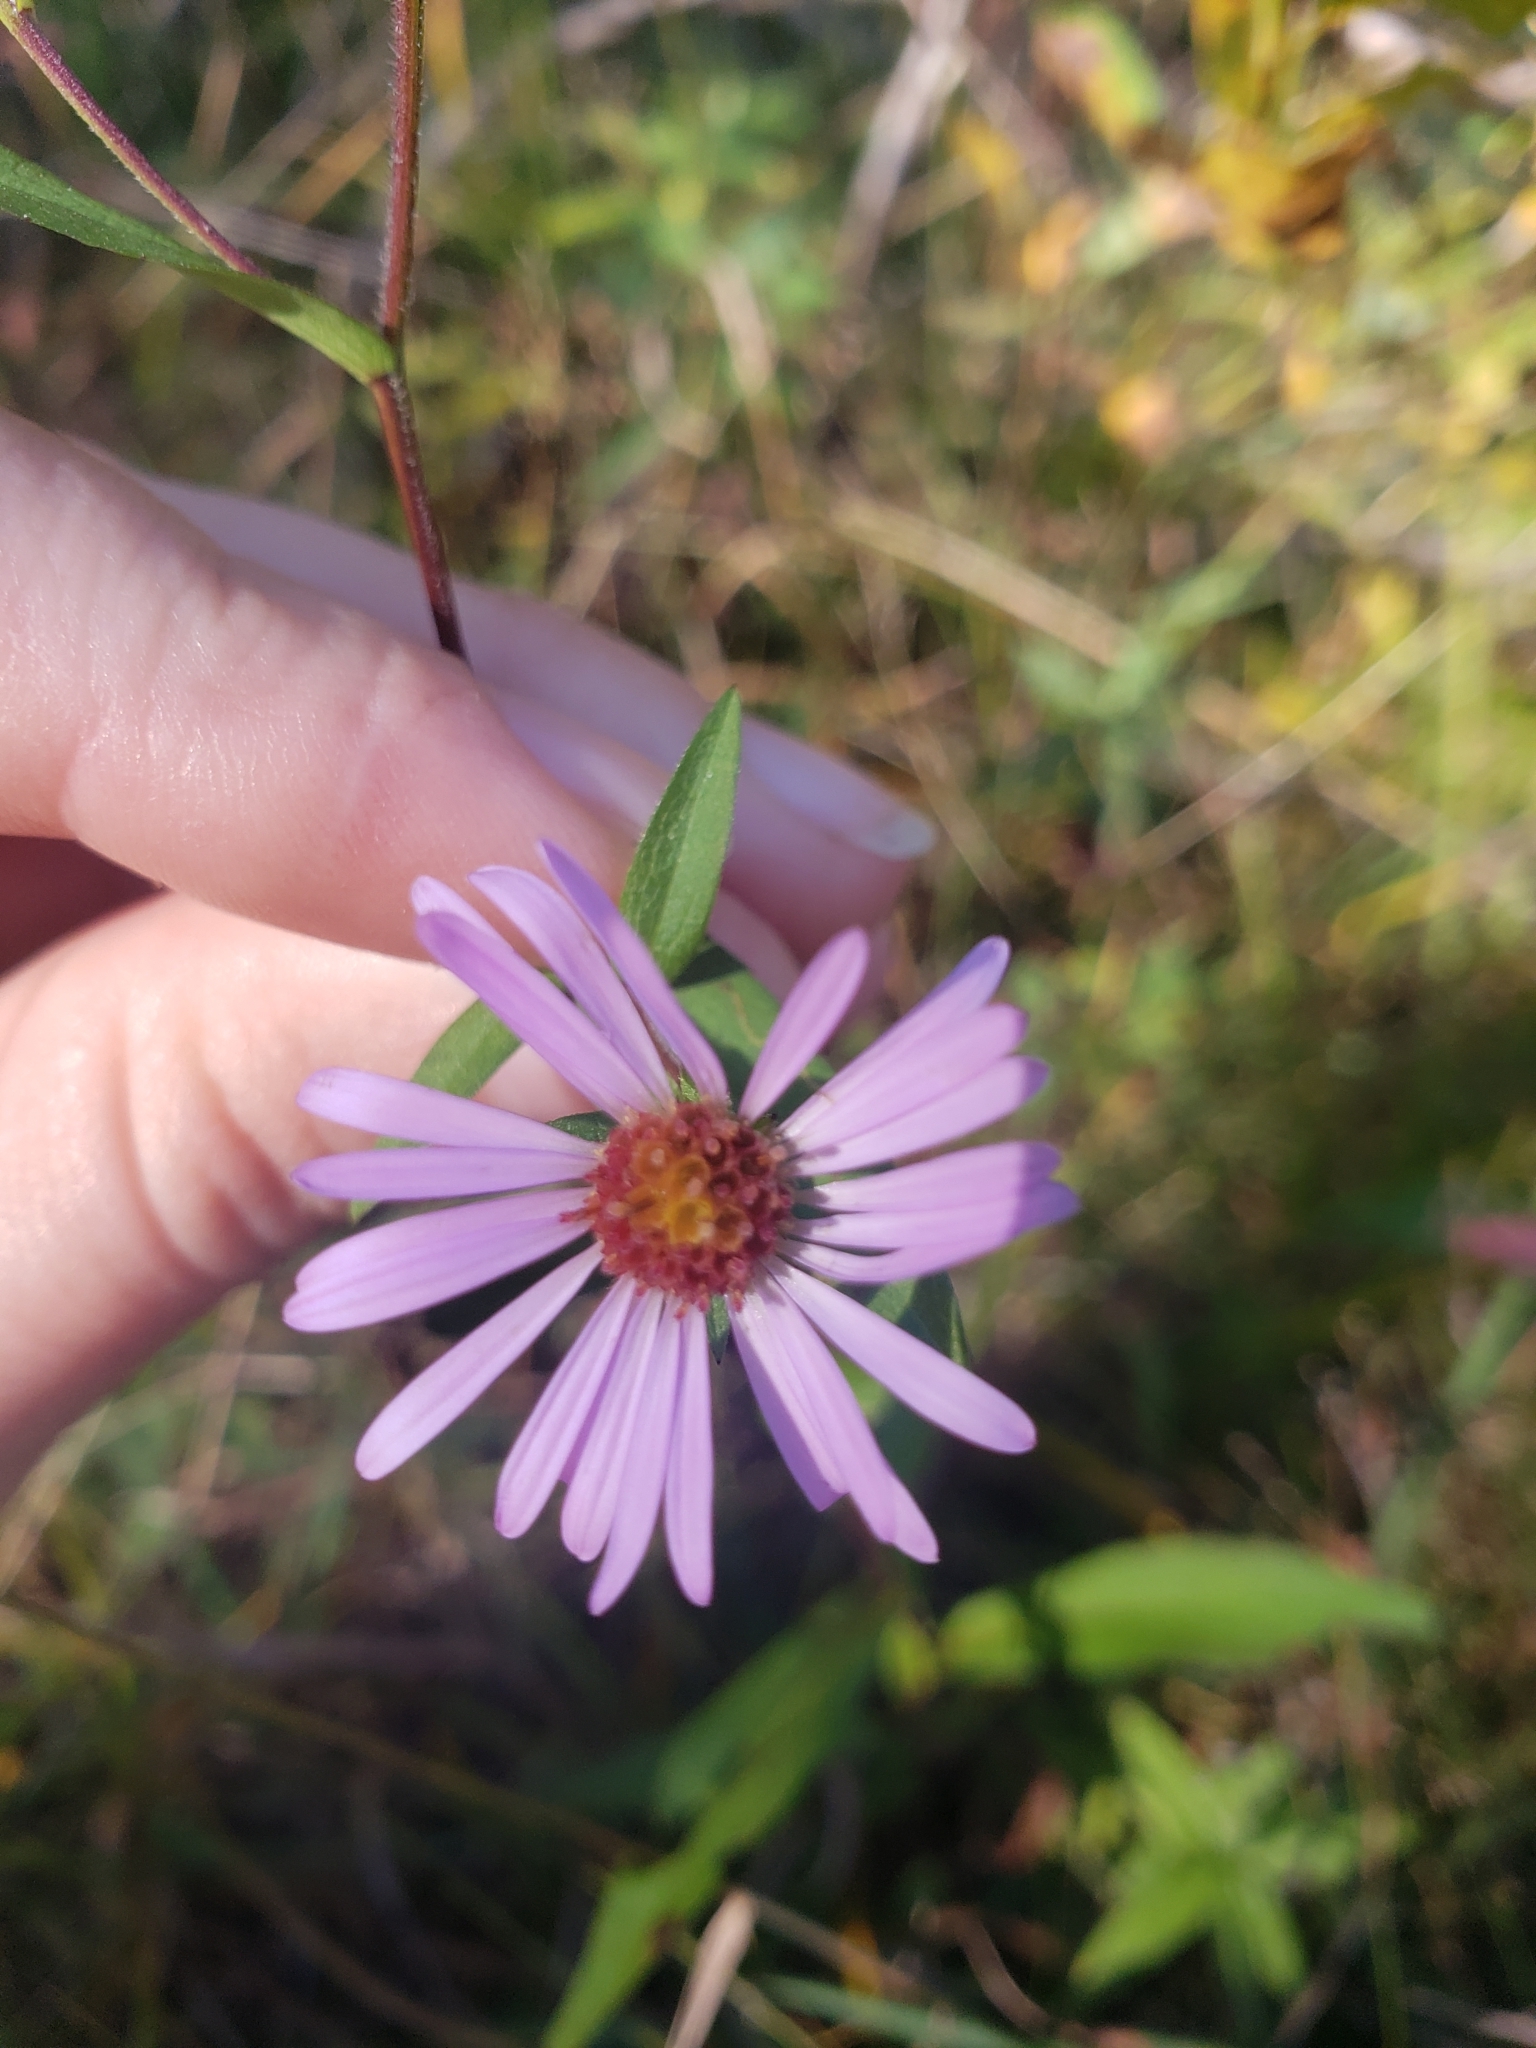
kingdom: Plantae
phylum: Tracheophyta
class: Magnoliopsida
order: Asterales
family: Asteraceae
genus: Symphyotrichum
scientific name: Symphyotrichum novi-belgii
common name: Michaelmas daisy
